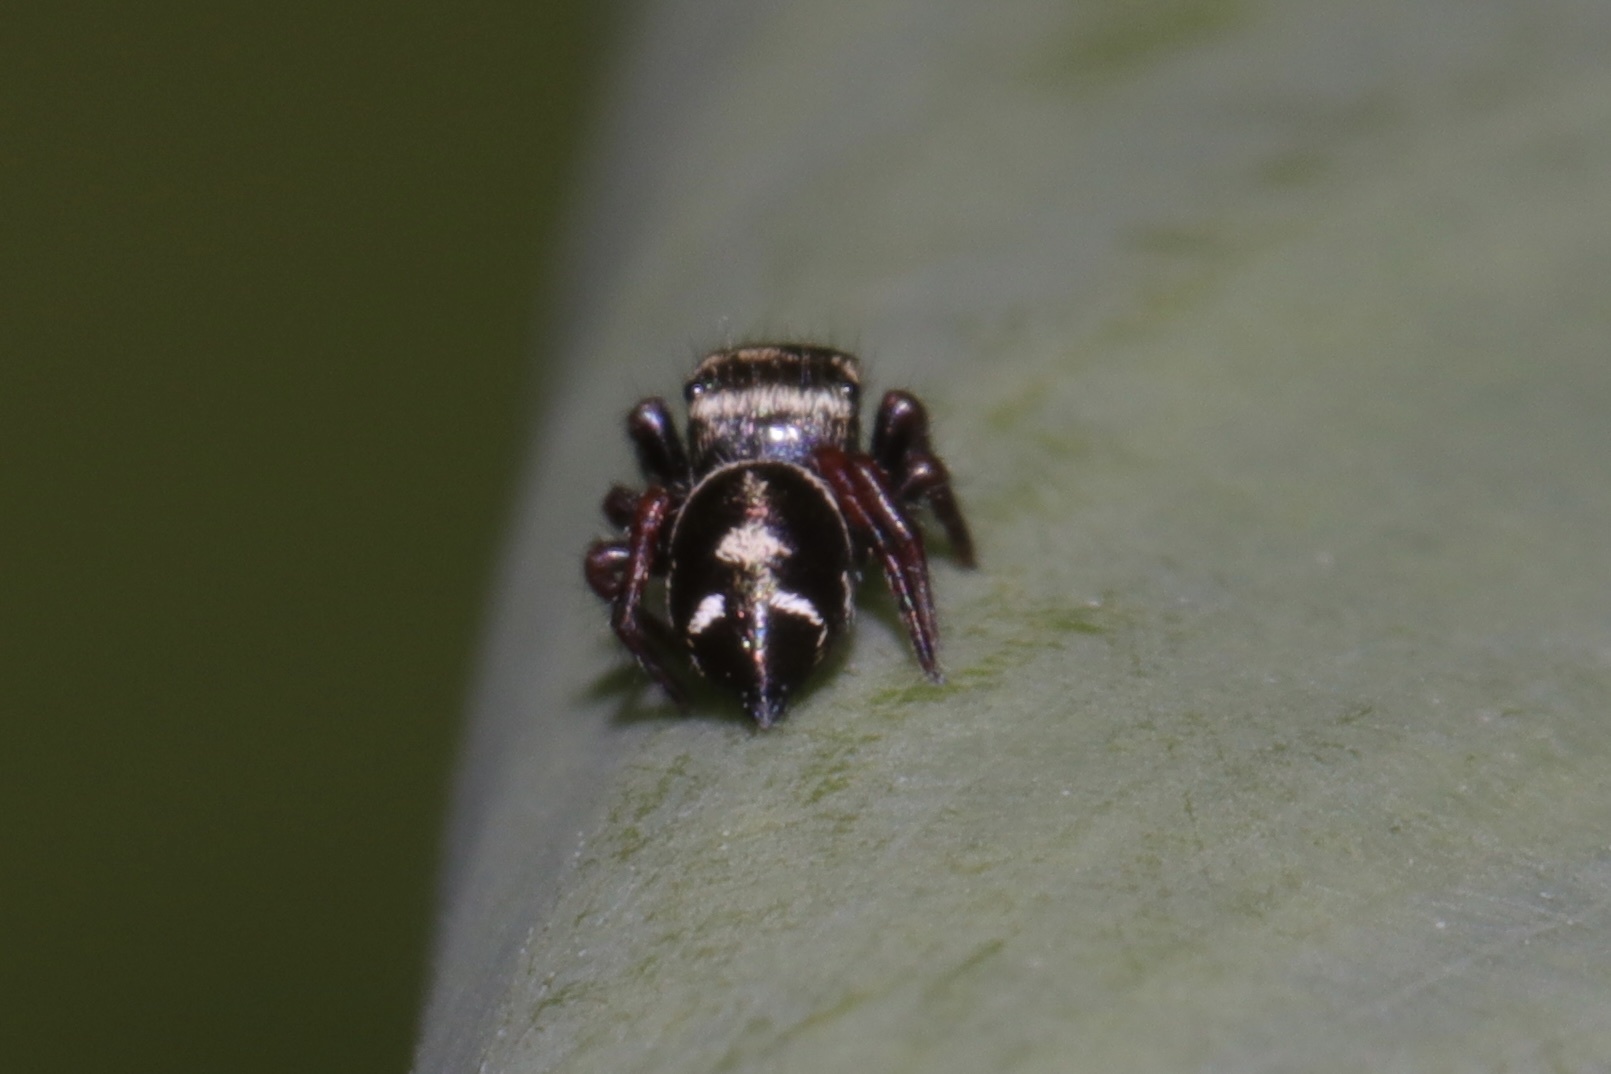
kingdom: Animalia
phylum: Arthropoda
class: Arachnida
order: Araneae
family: Salticidae
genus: Phidippus
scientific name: Phidippus audax
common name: Bold jumper
